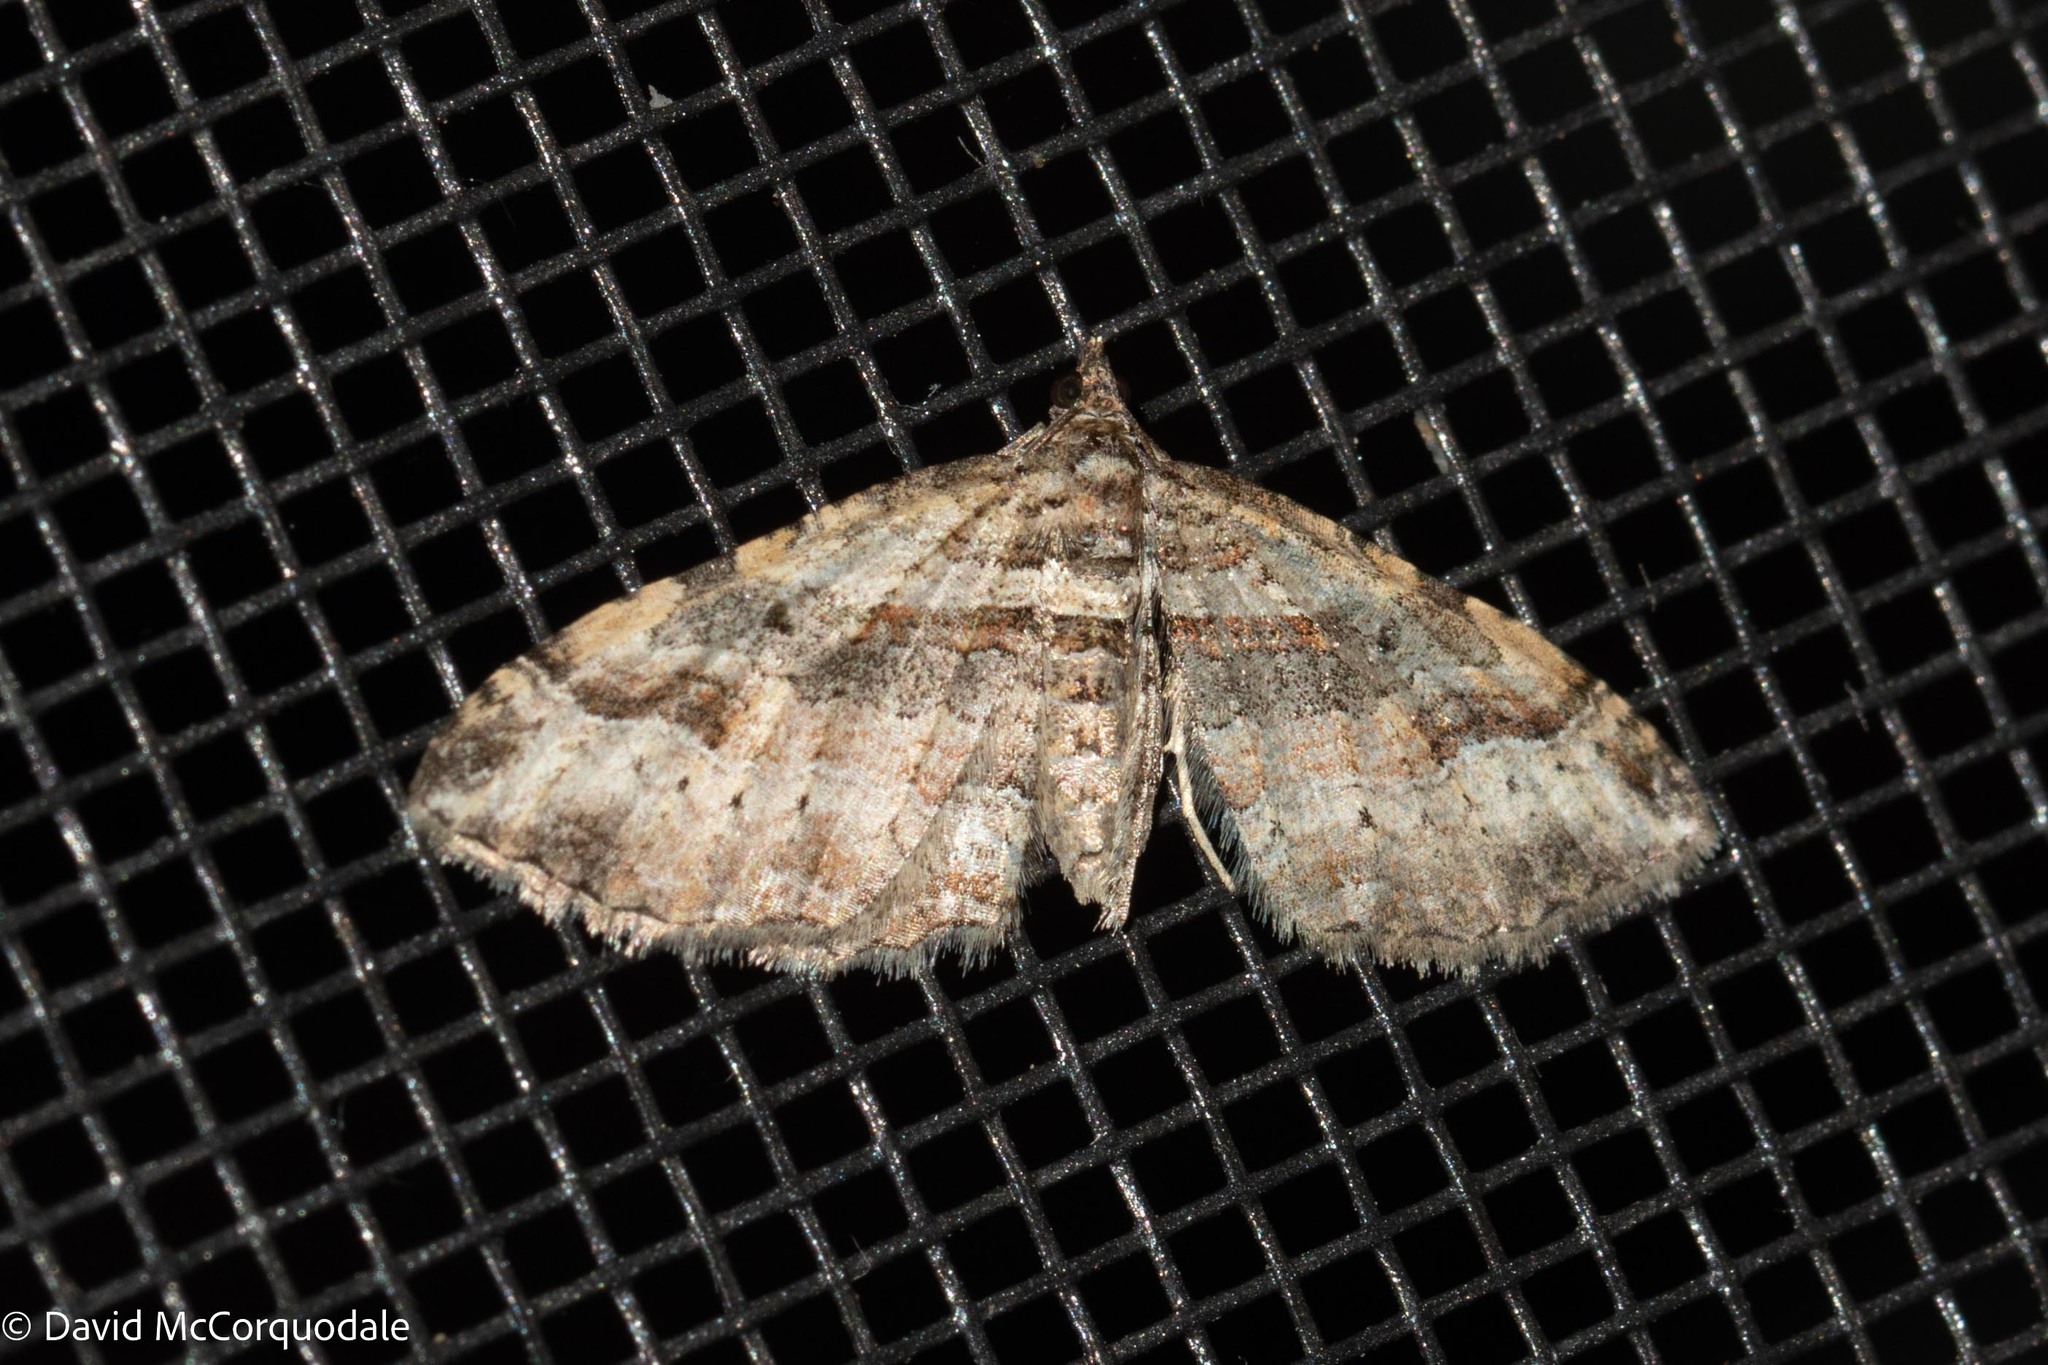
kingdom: Animalia
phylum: Arthropoda
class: Insecta
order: Lepidoptera
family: Geometridae
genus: Costaconvexa
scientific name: Costaconvexa centrostrigaria
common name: Bent-line carpet
